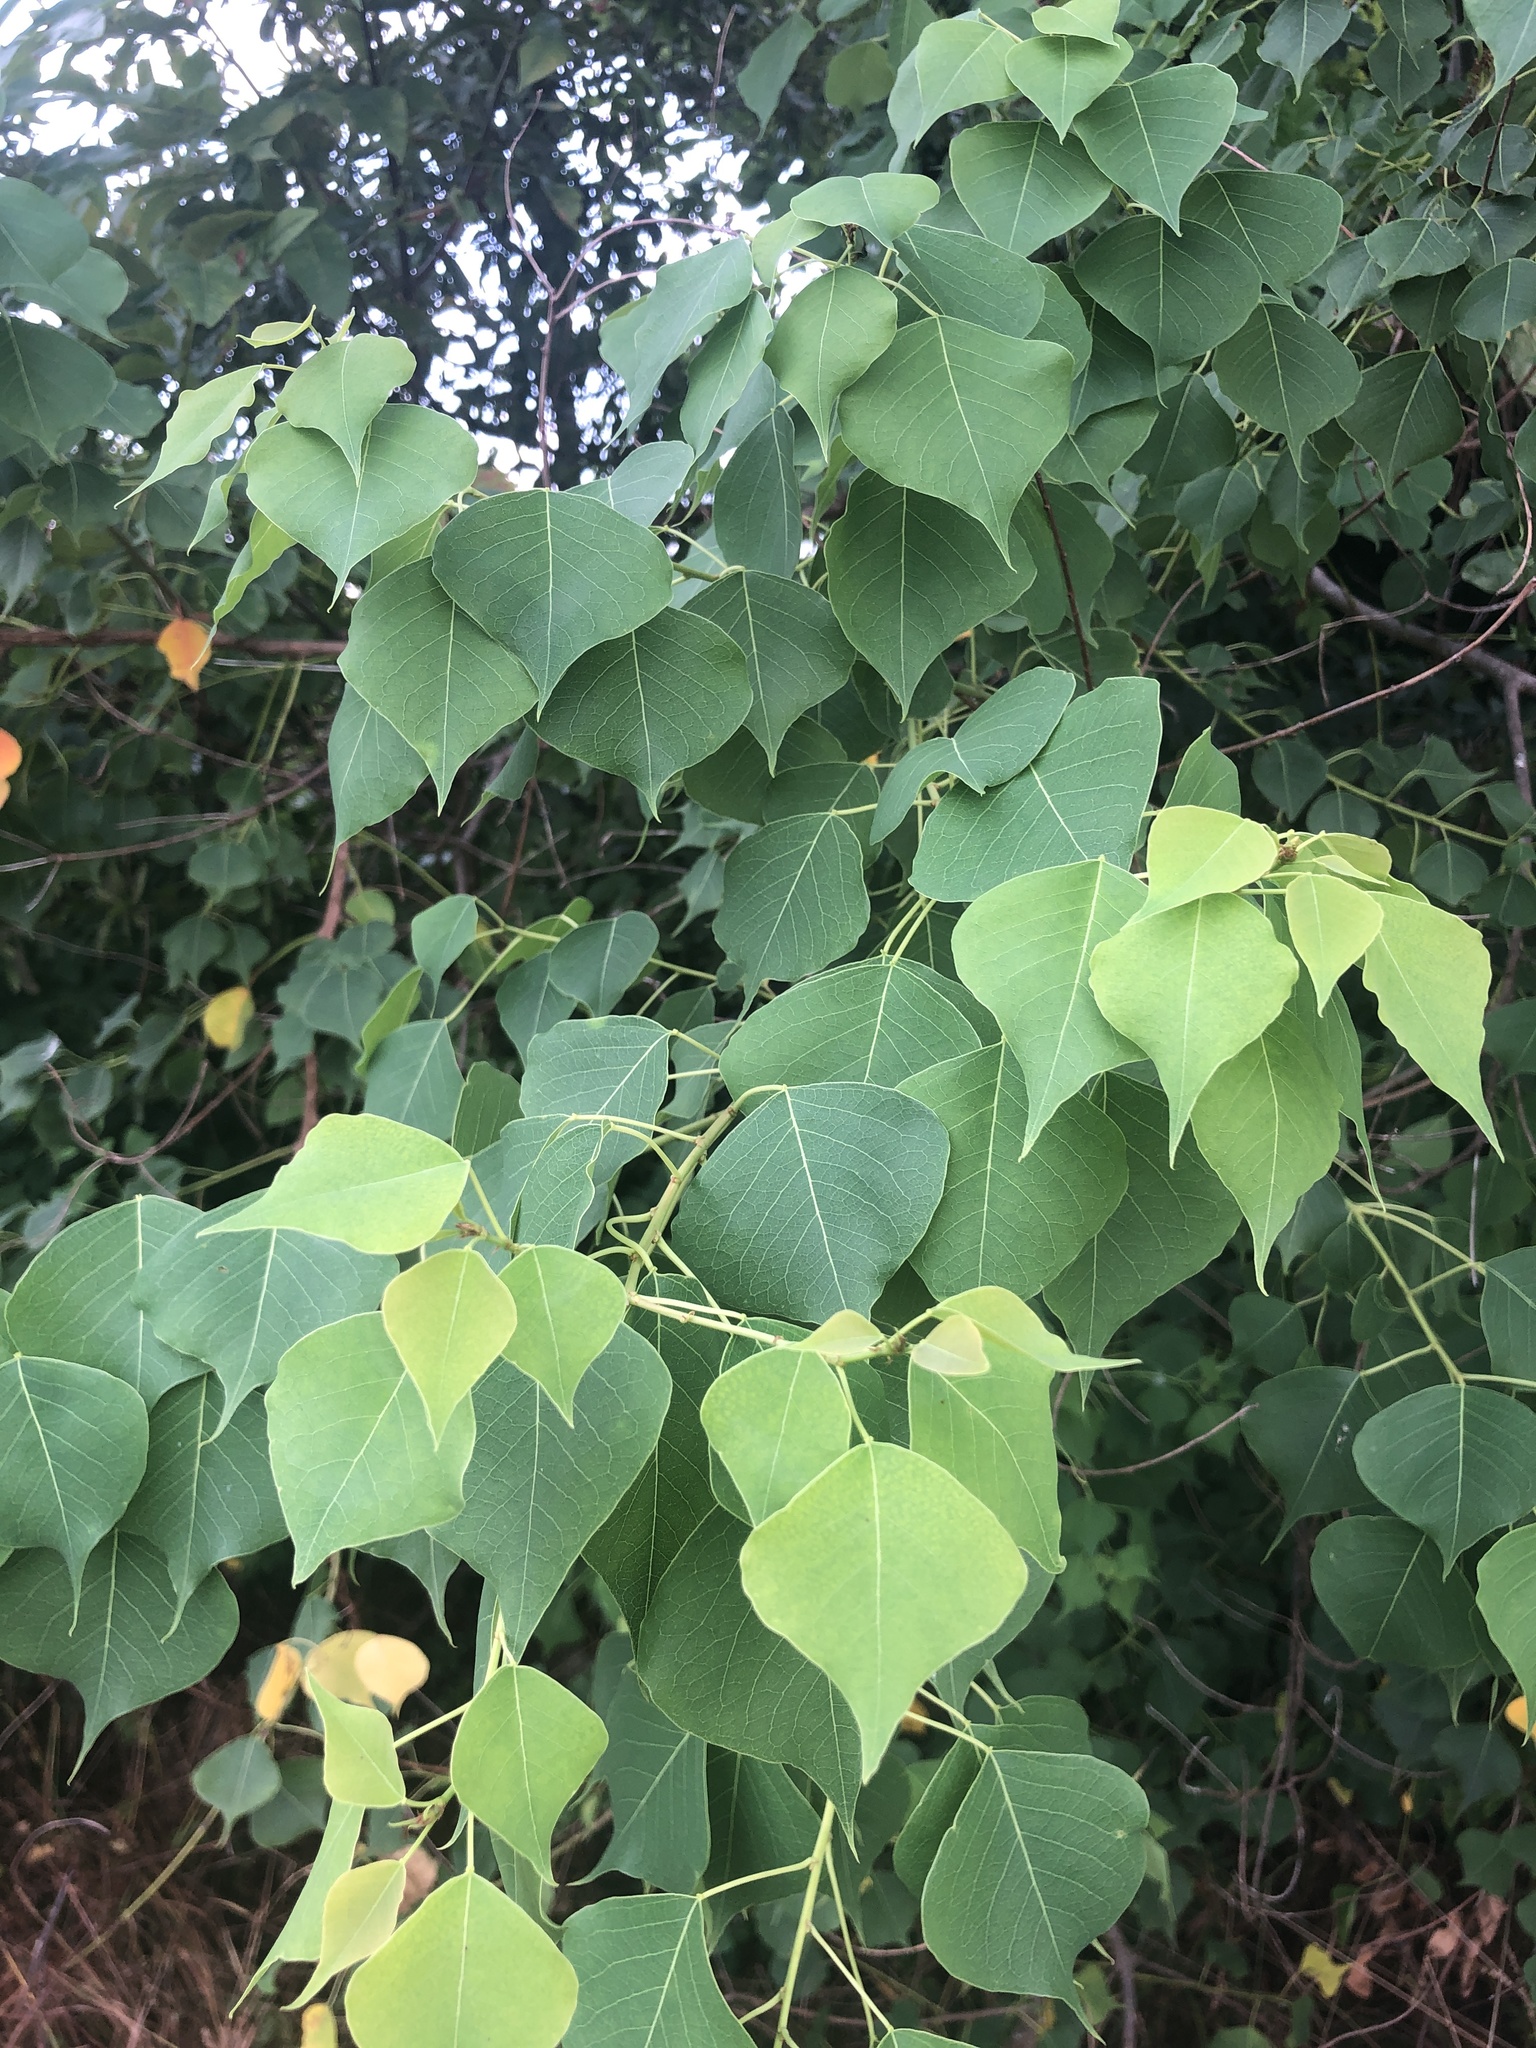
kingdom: Plantae
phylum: Tracheophyta
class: Magnoliopsida
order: Malpighiales
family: Euphorbiaceae
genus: Triadica
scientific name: Triadica sebifera
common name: Chinese tallow
